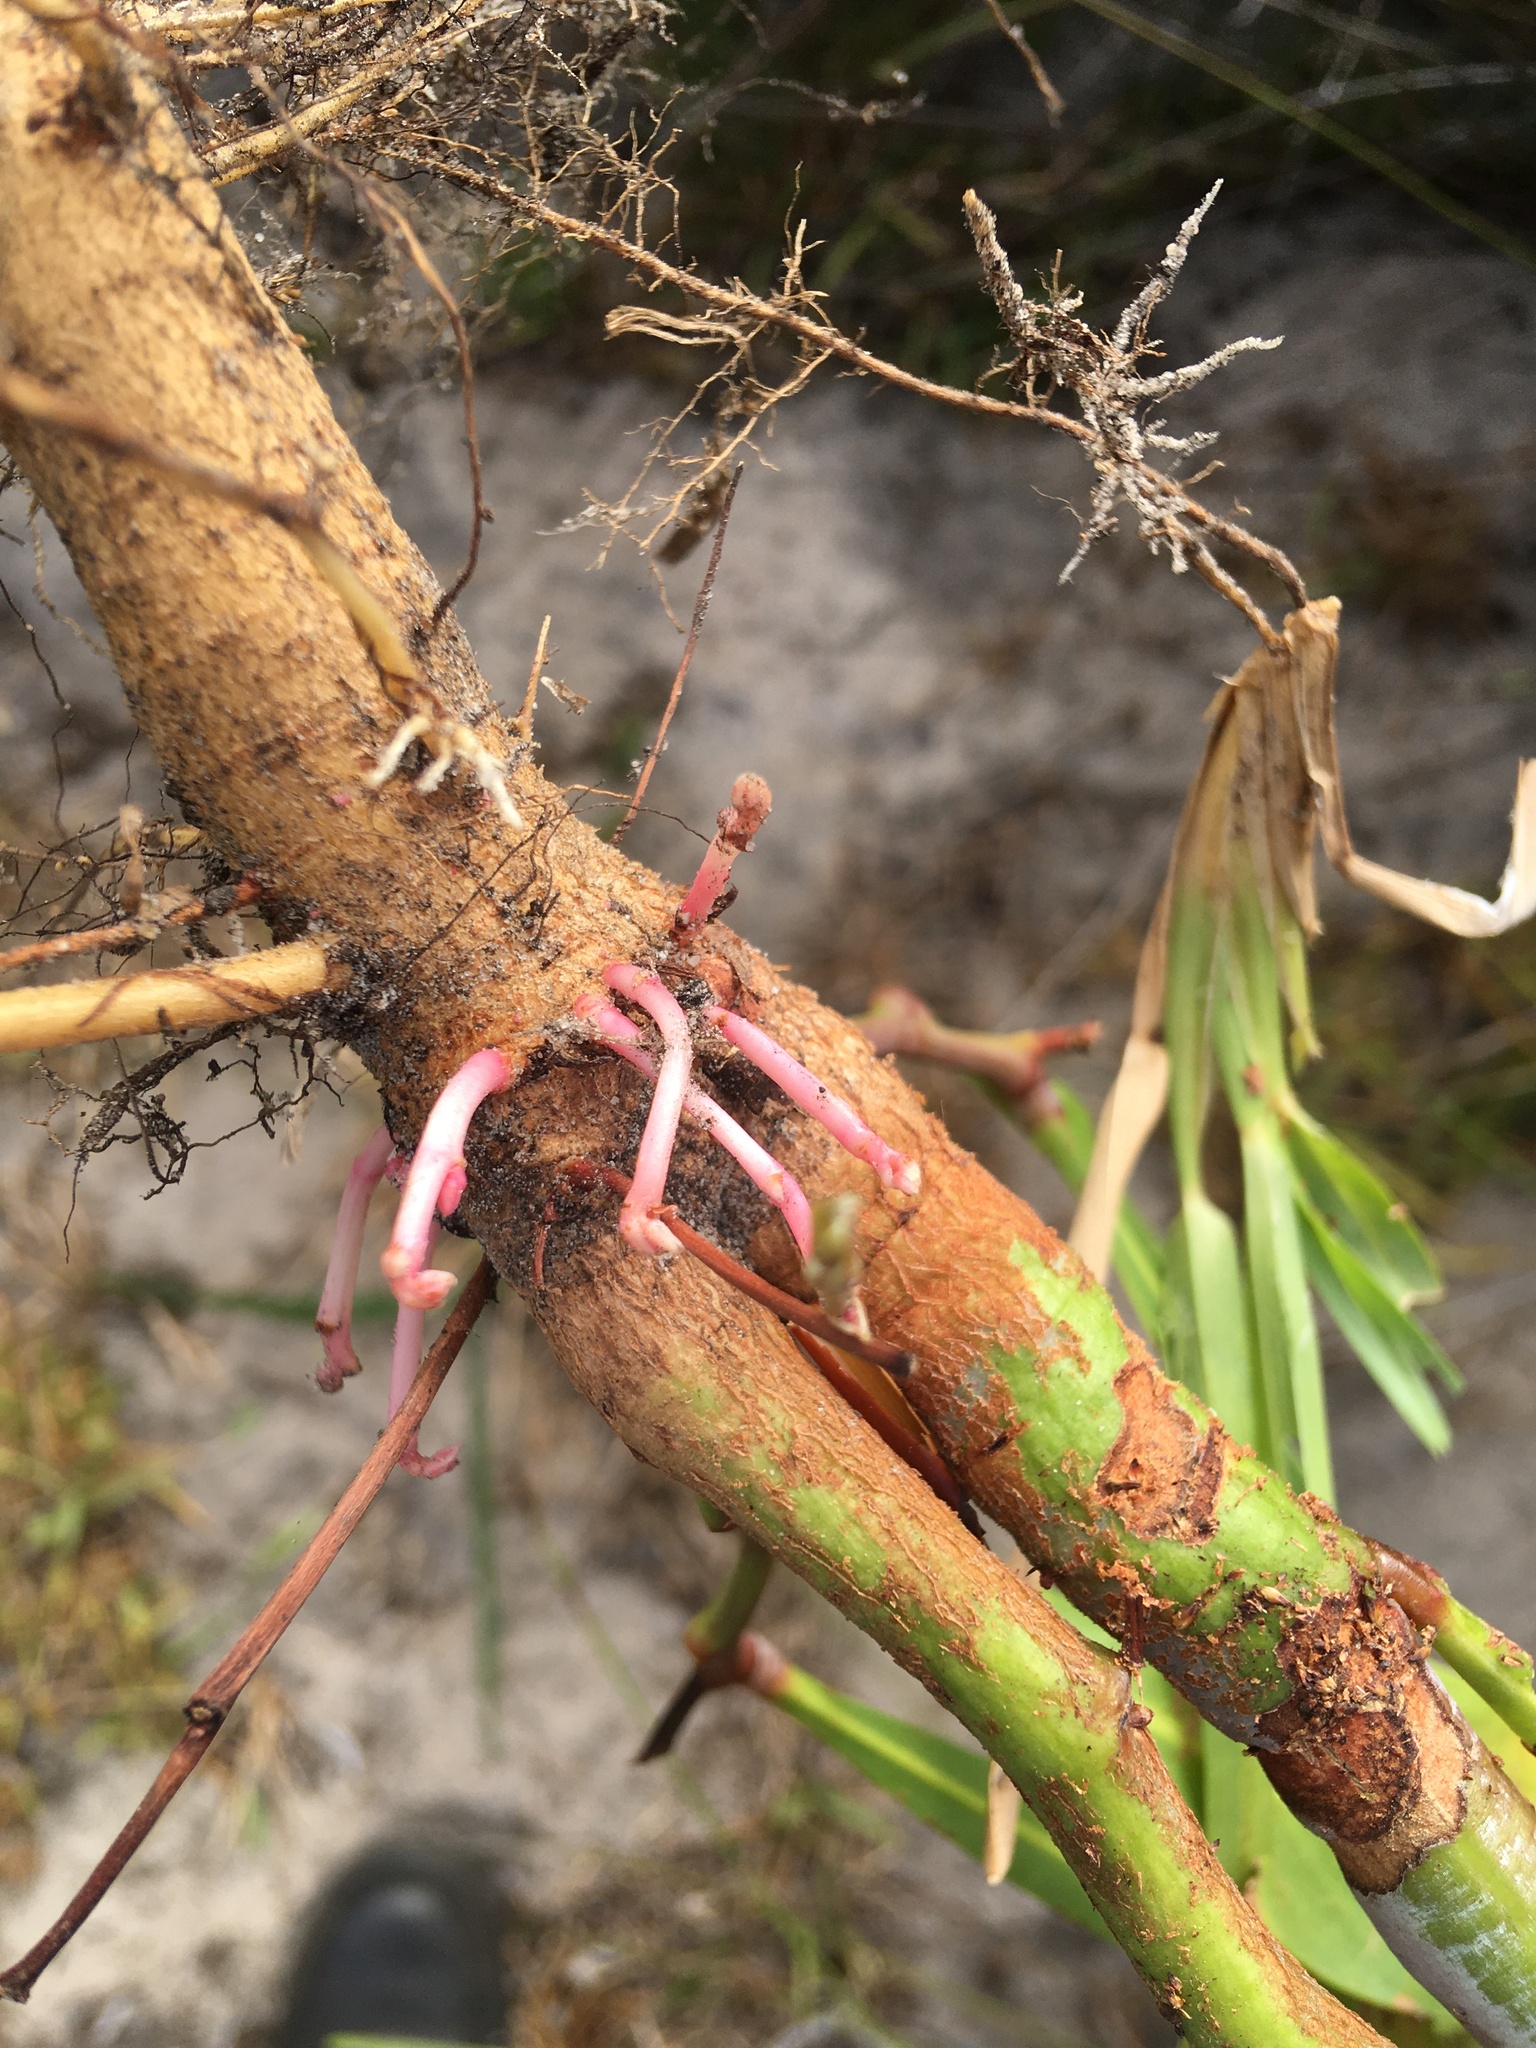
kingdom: Plantae
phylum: Tracheophyta
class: Magnoliopsida
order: Fabales
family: Fabaceae
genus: Acacia
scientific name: Acacia cyclops
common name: Coastal wattle
